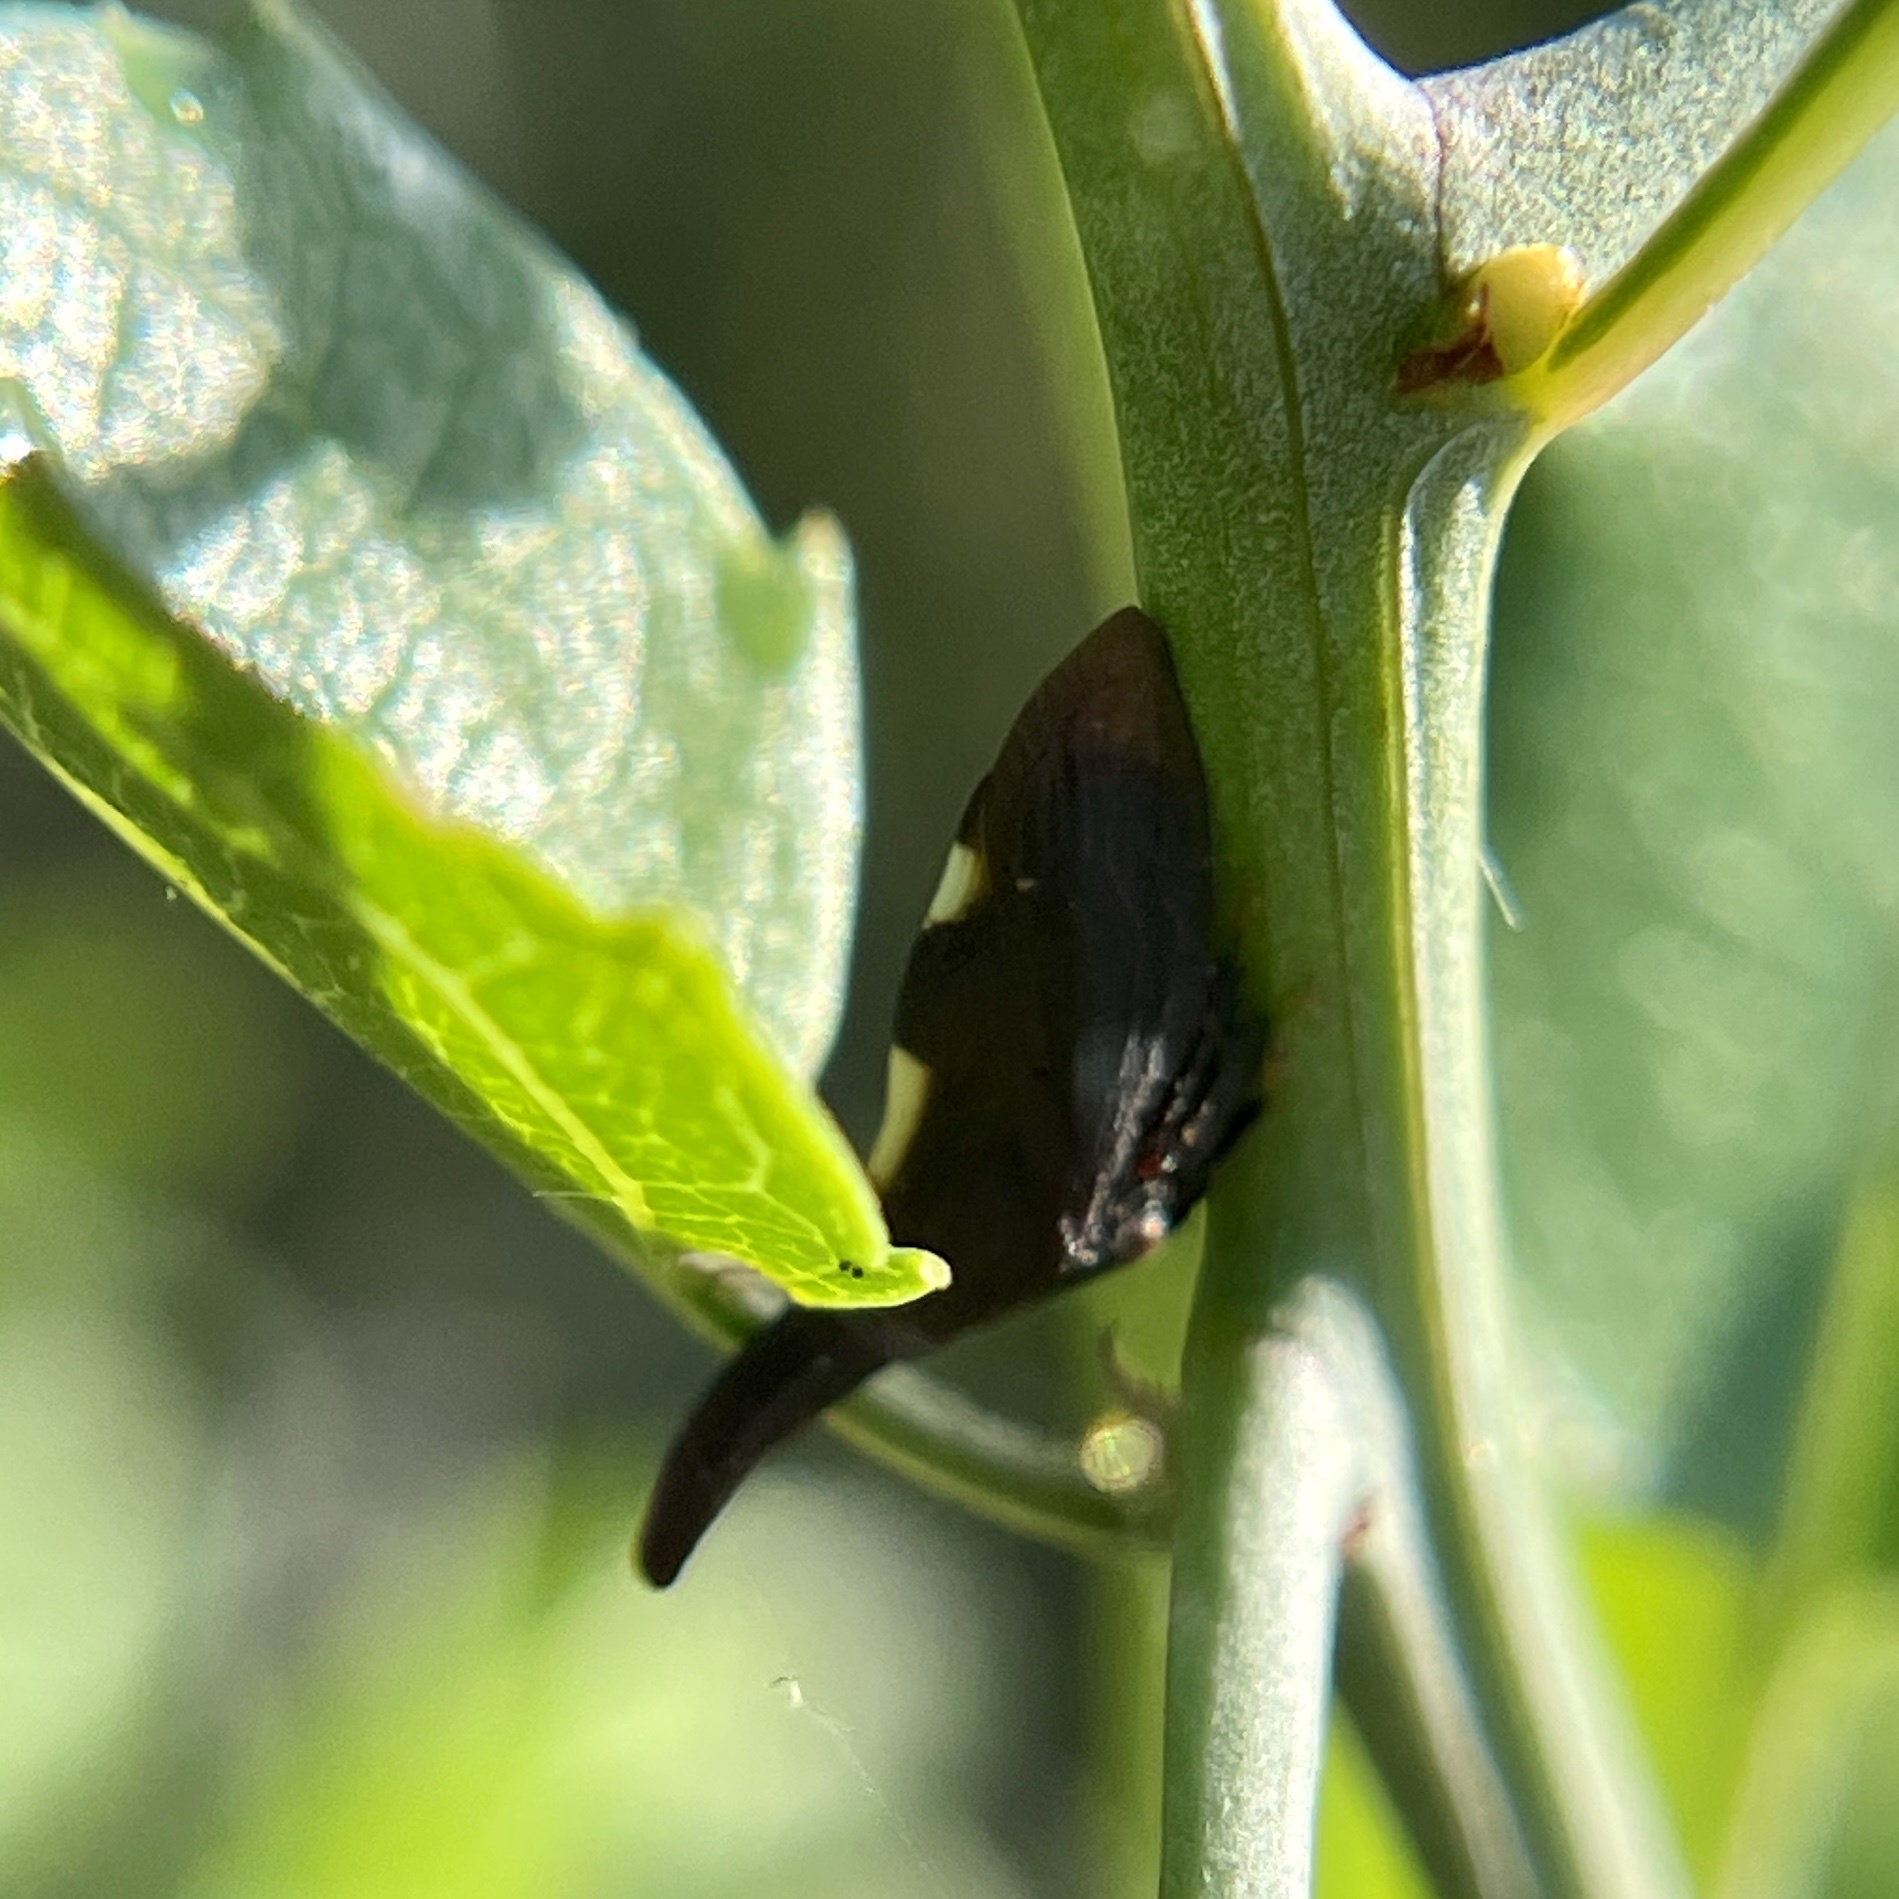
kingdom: Animalia
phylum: Arthropoda
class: Insecta
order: Hemiptera
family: Membracidae
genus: Enchenopa
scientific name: Enchenopa
